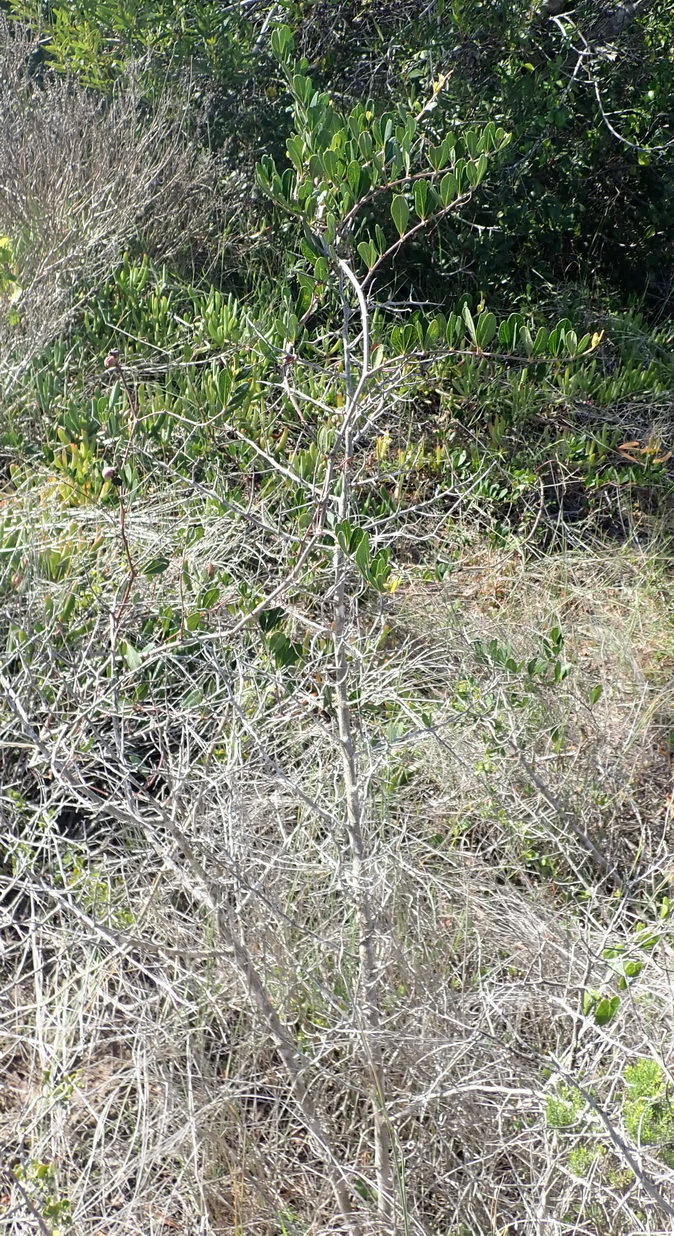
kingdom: Plantae
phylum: Tracheophyta
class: Magnoliopsida
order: Vitales
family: Vitaceae
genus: Rhoicissus
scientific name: Rhoicissus digitata
